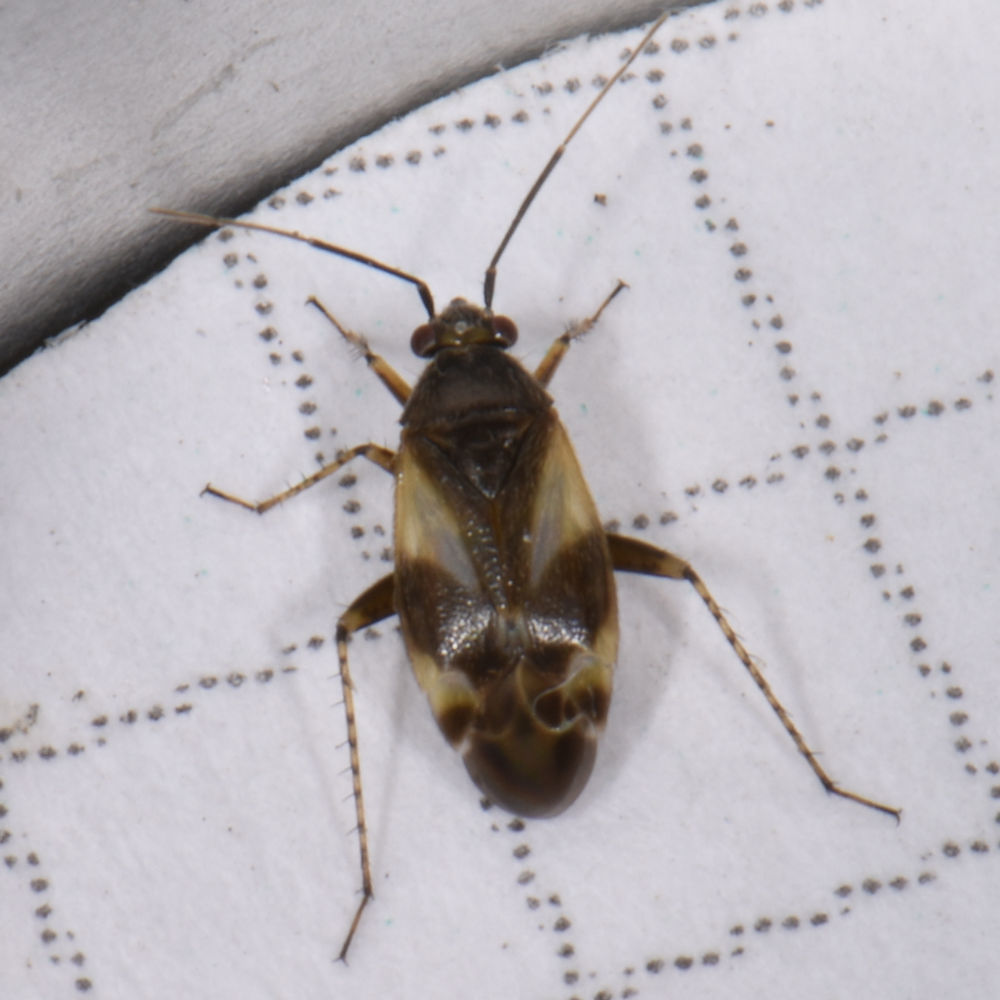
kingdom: Animalia
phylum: Arthropoda
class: Insecta
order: Hemiptera
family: Miridae
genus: Plagiognathus
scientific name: Plagiognathus obscurus
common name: Obscure plant bug
